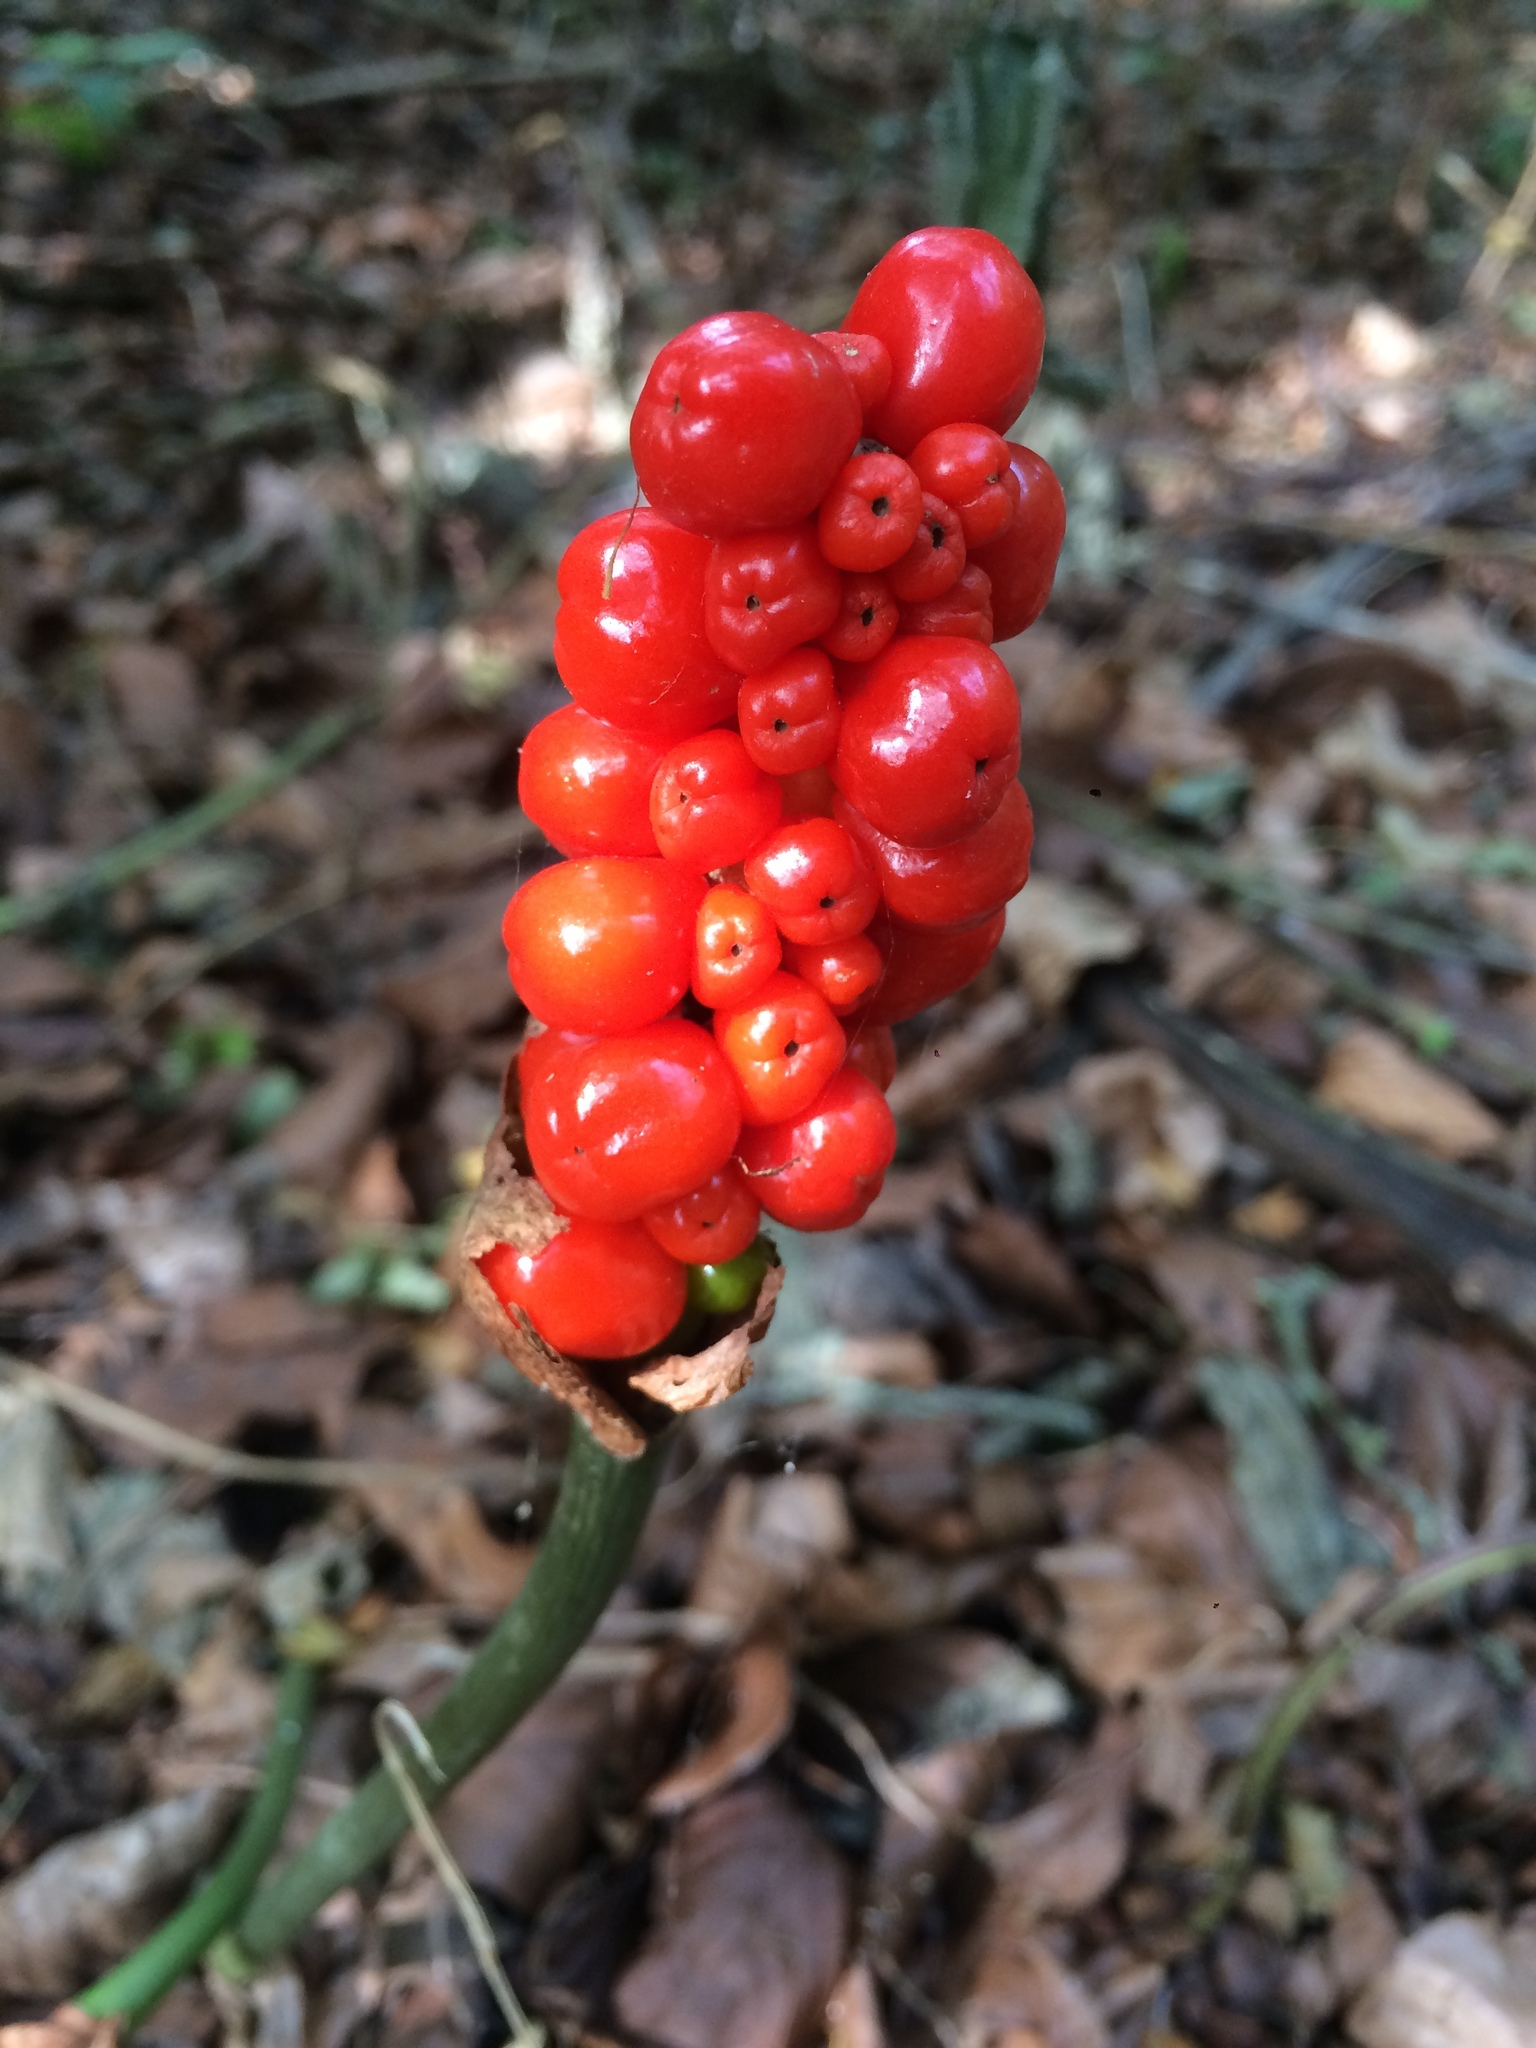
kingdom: Plantae
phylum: Tracheophyta
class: Liliopsida
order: Alismatales
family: Araceae
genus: Arum
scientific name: Arum maculatum
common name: Lords-and-ladies
